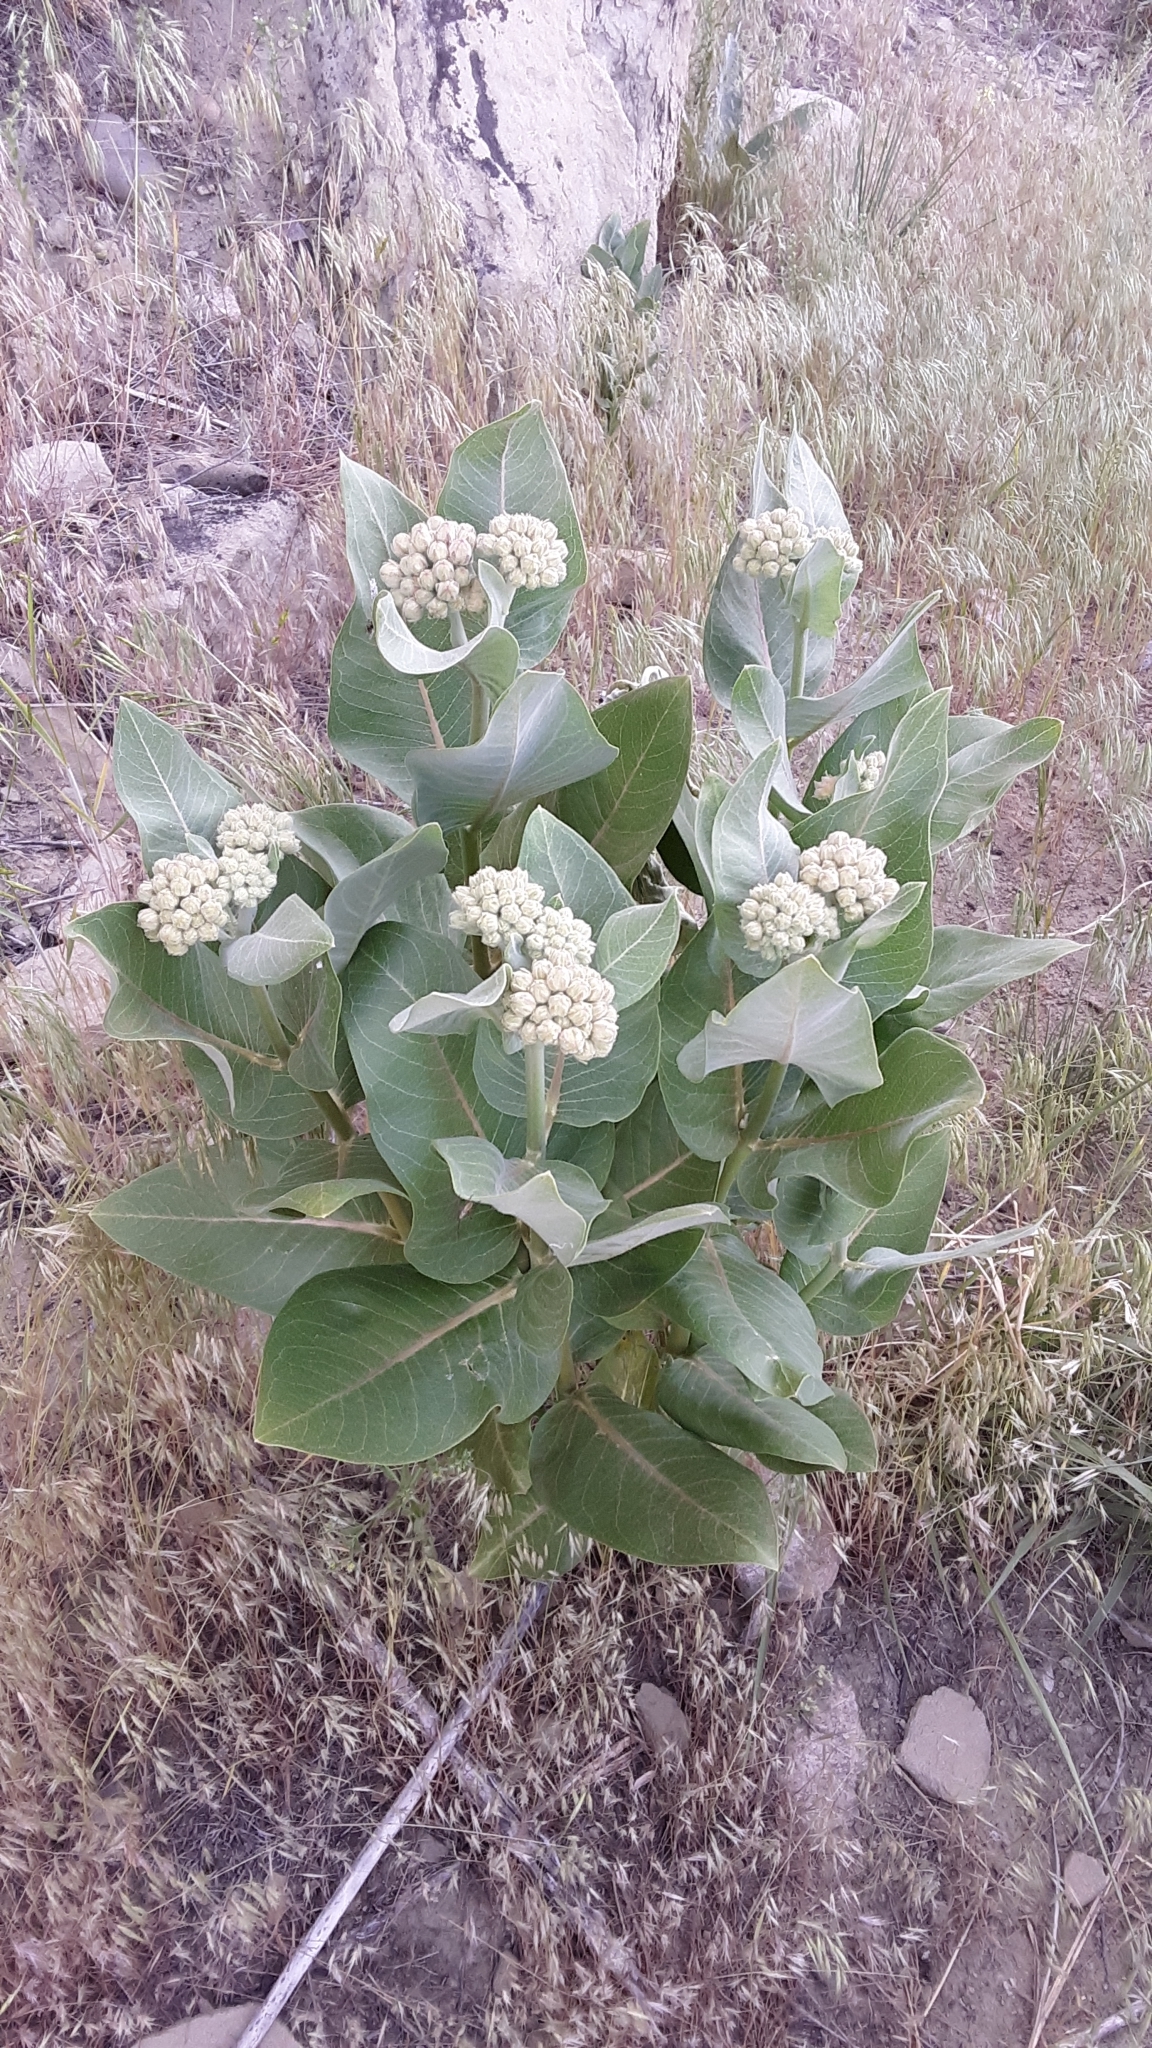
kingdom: Plantae
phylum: Tracheophyta
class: Magnoliopsida
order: Gentianales
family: Apocynaceae
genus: Asclepias
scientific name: Asclepias speciosa
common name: Showy milkweed
